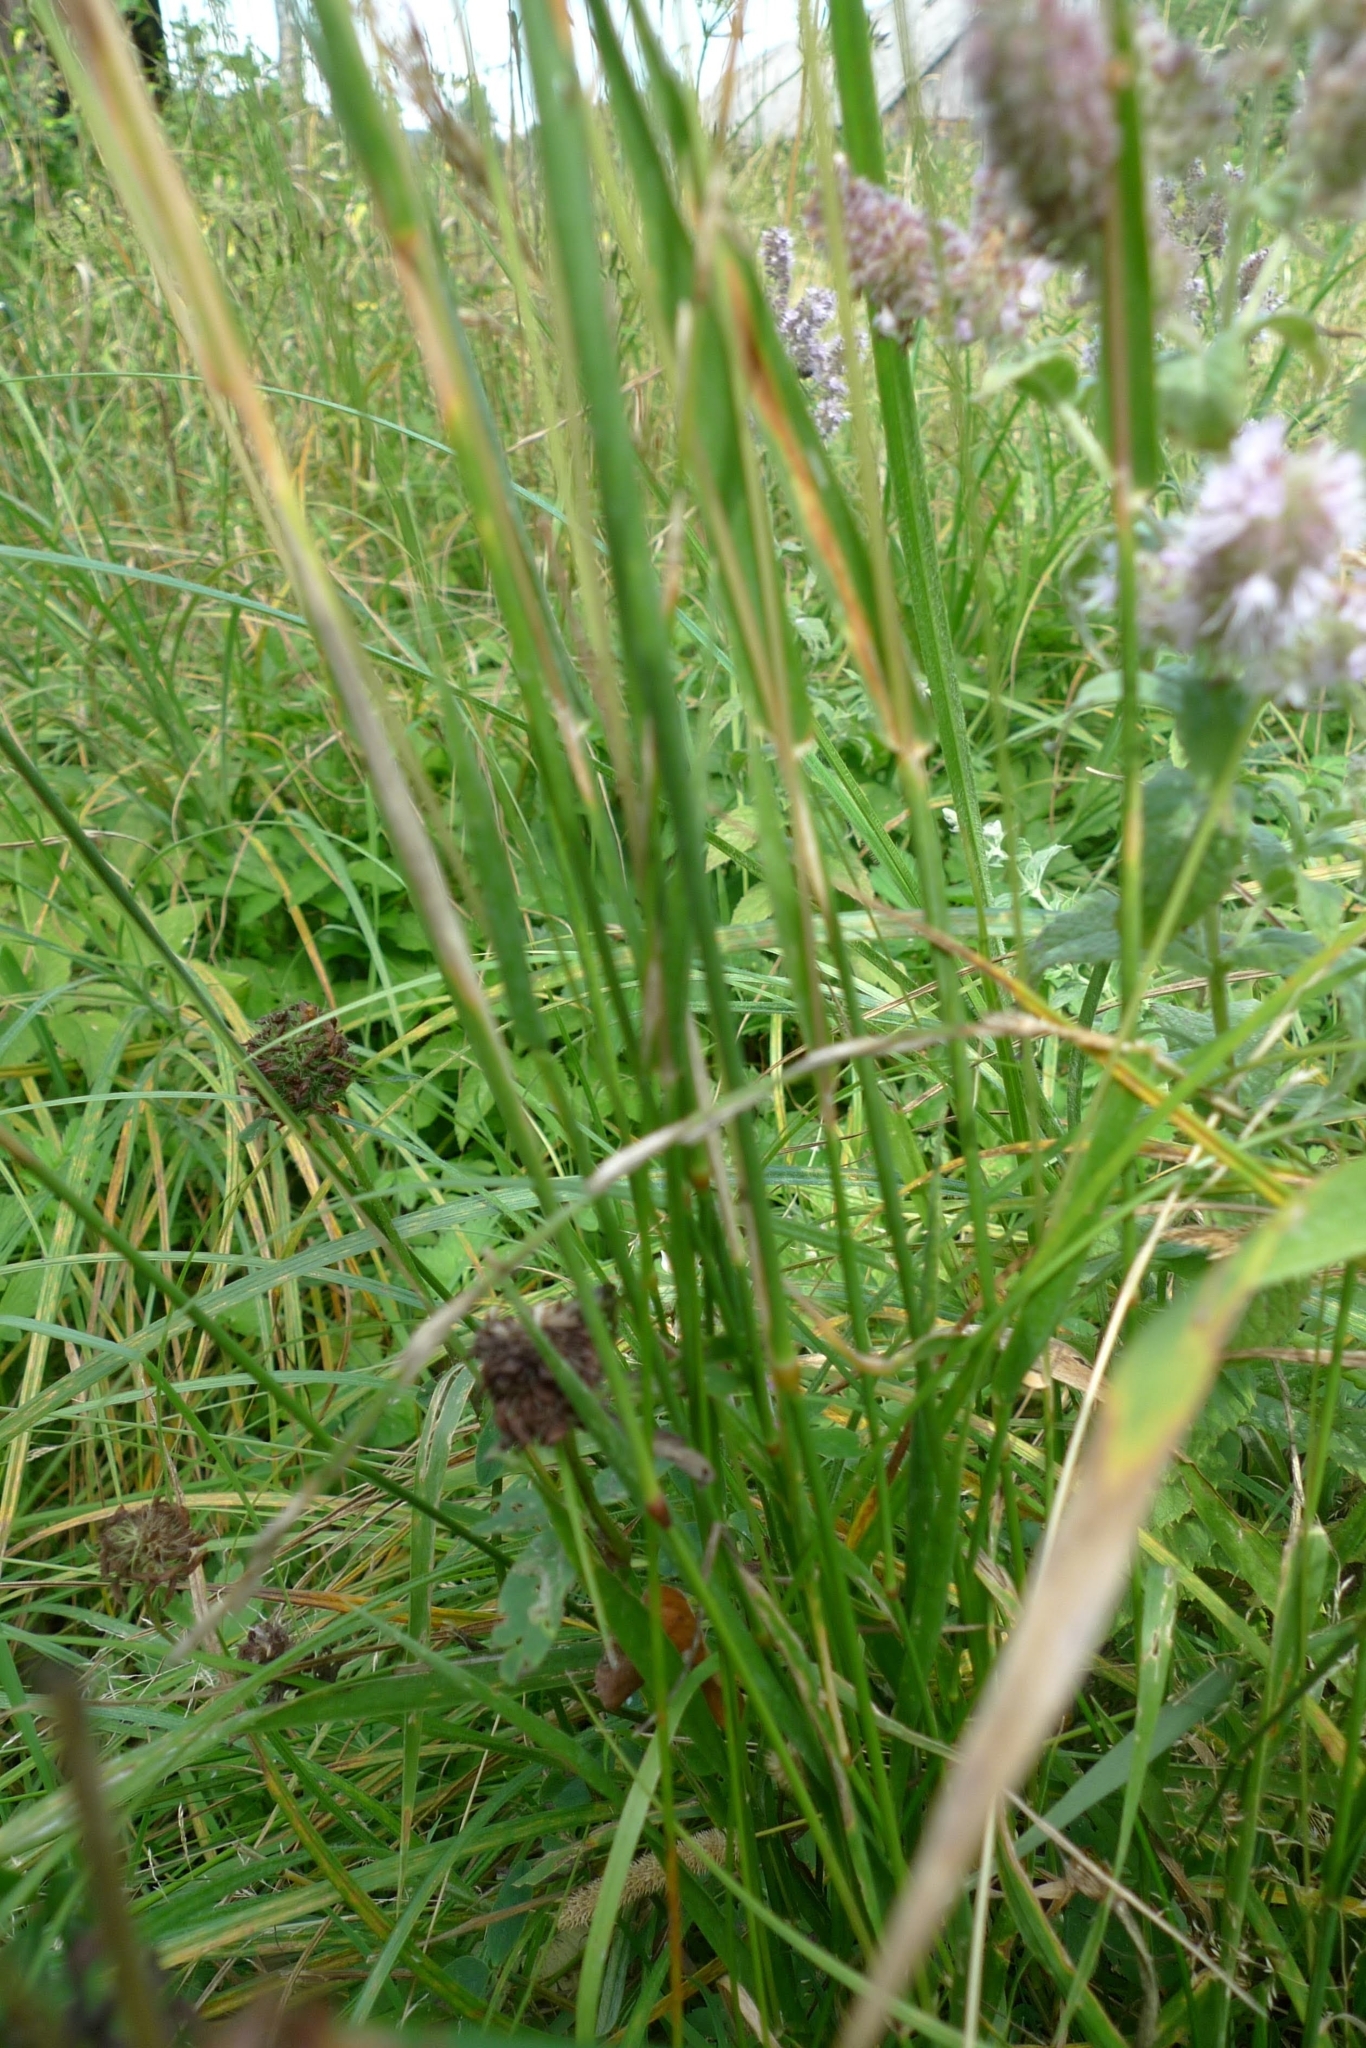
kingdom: Plantae
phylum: Tracheophyta
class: Liliopsida
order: Poales
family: Poaceae
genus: Phleum
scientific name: Phleum pratense
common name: Timothy grass
